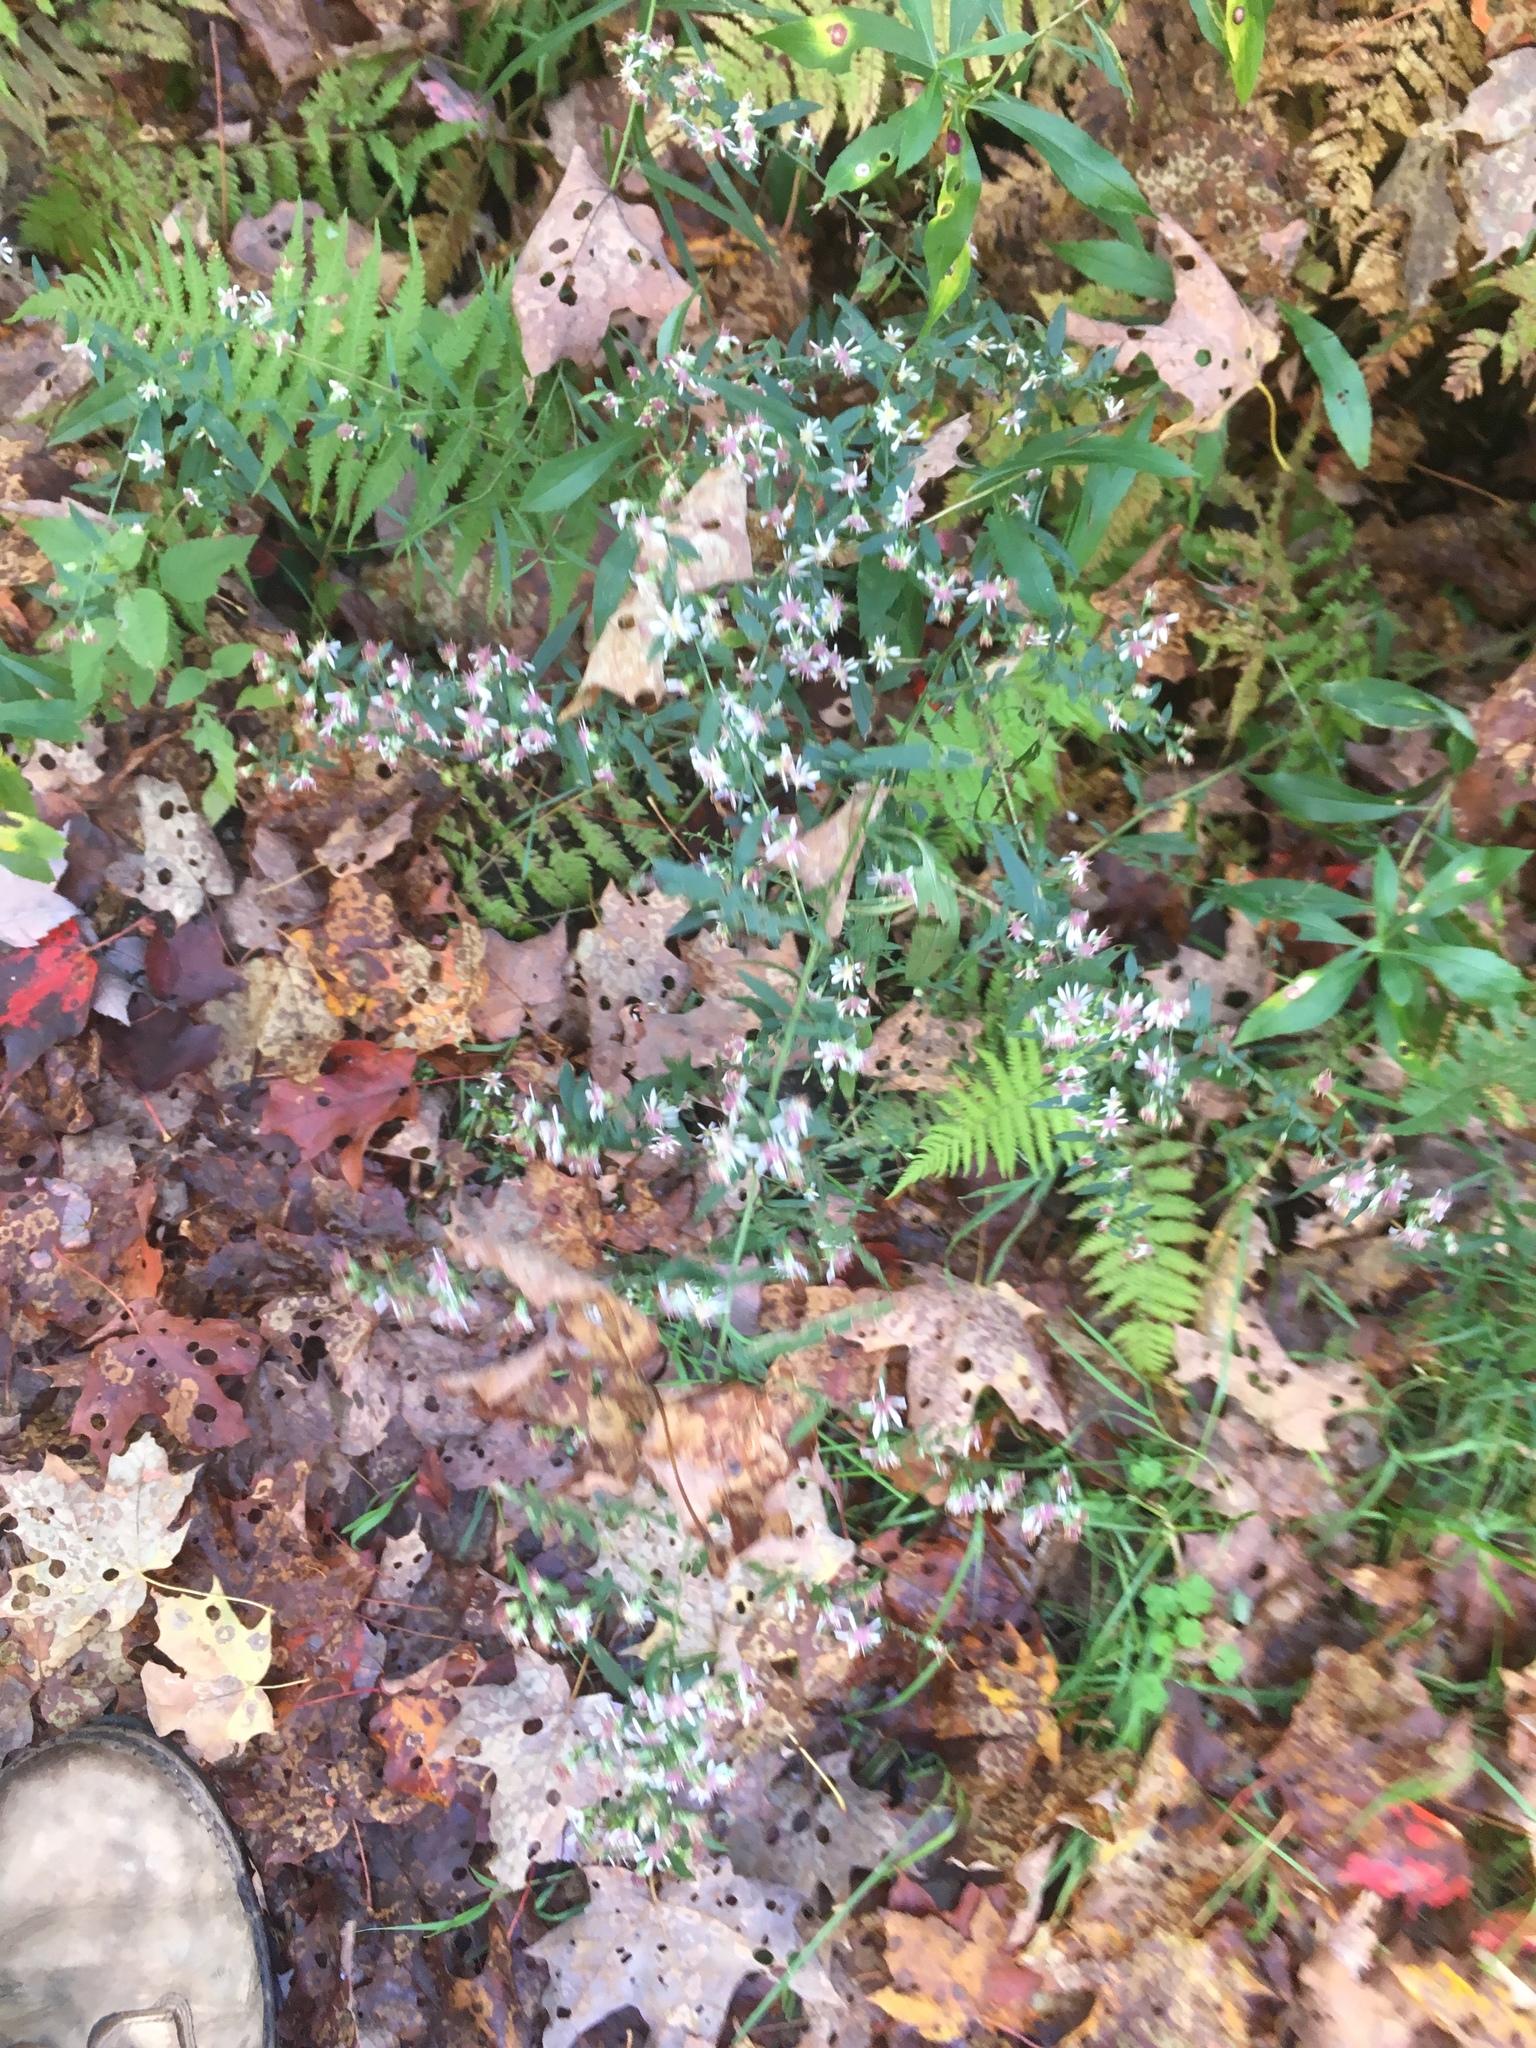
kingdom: Plantae
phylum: Tracheophyta
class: Magnoliopsida
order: Asterales
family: Asteraceae
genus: Symphyotrichum
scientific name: Symphyotrichum lateriflorum
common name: Calico aster
